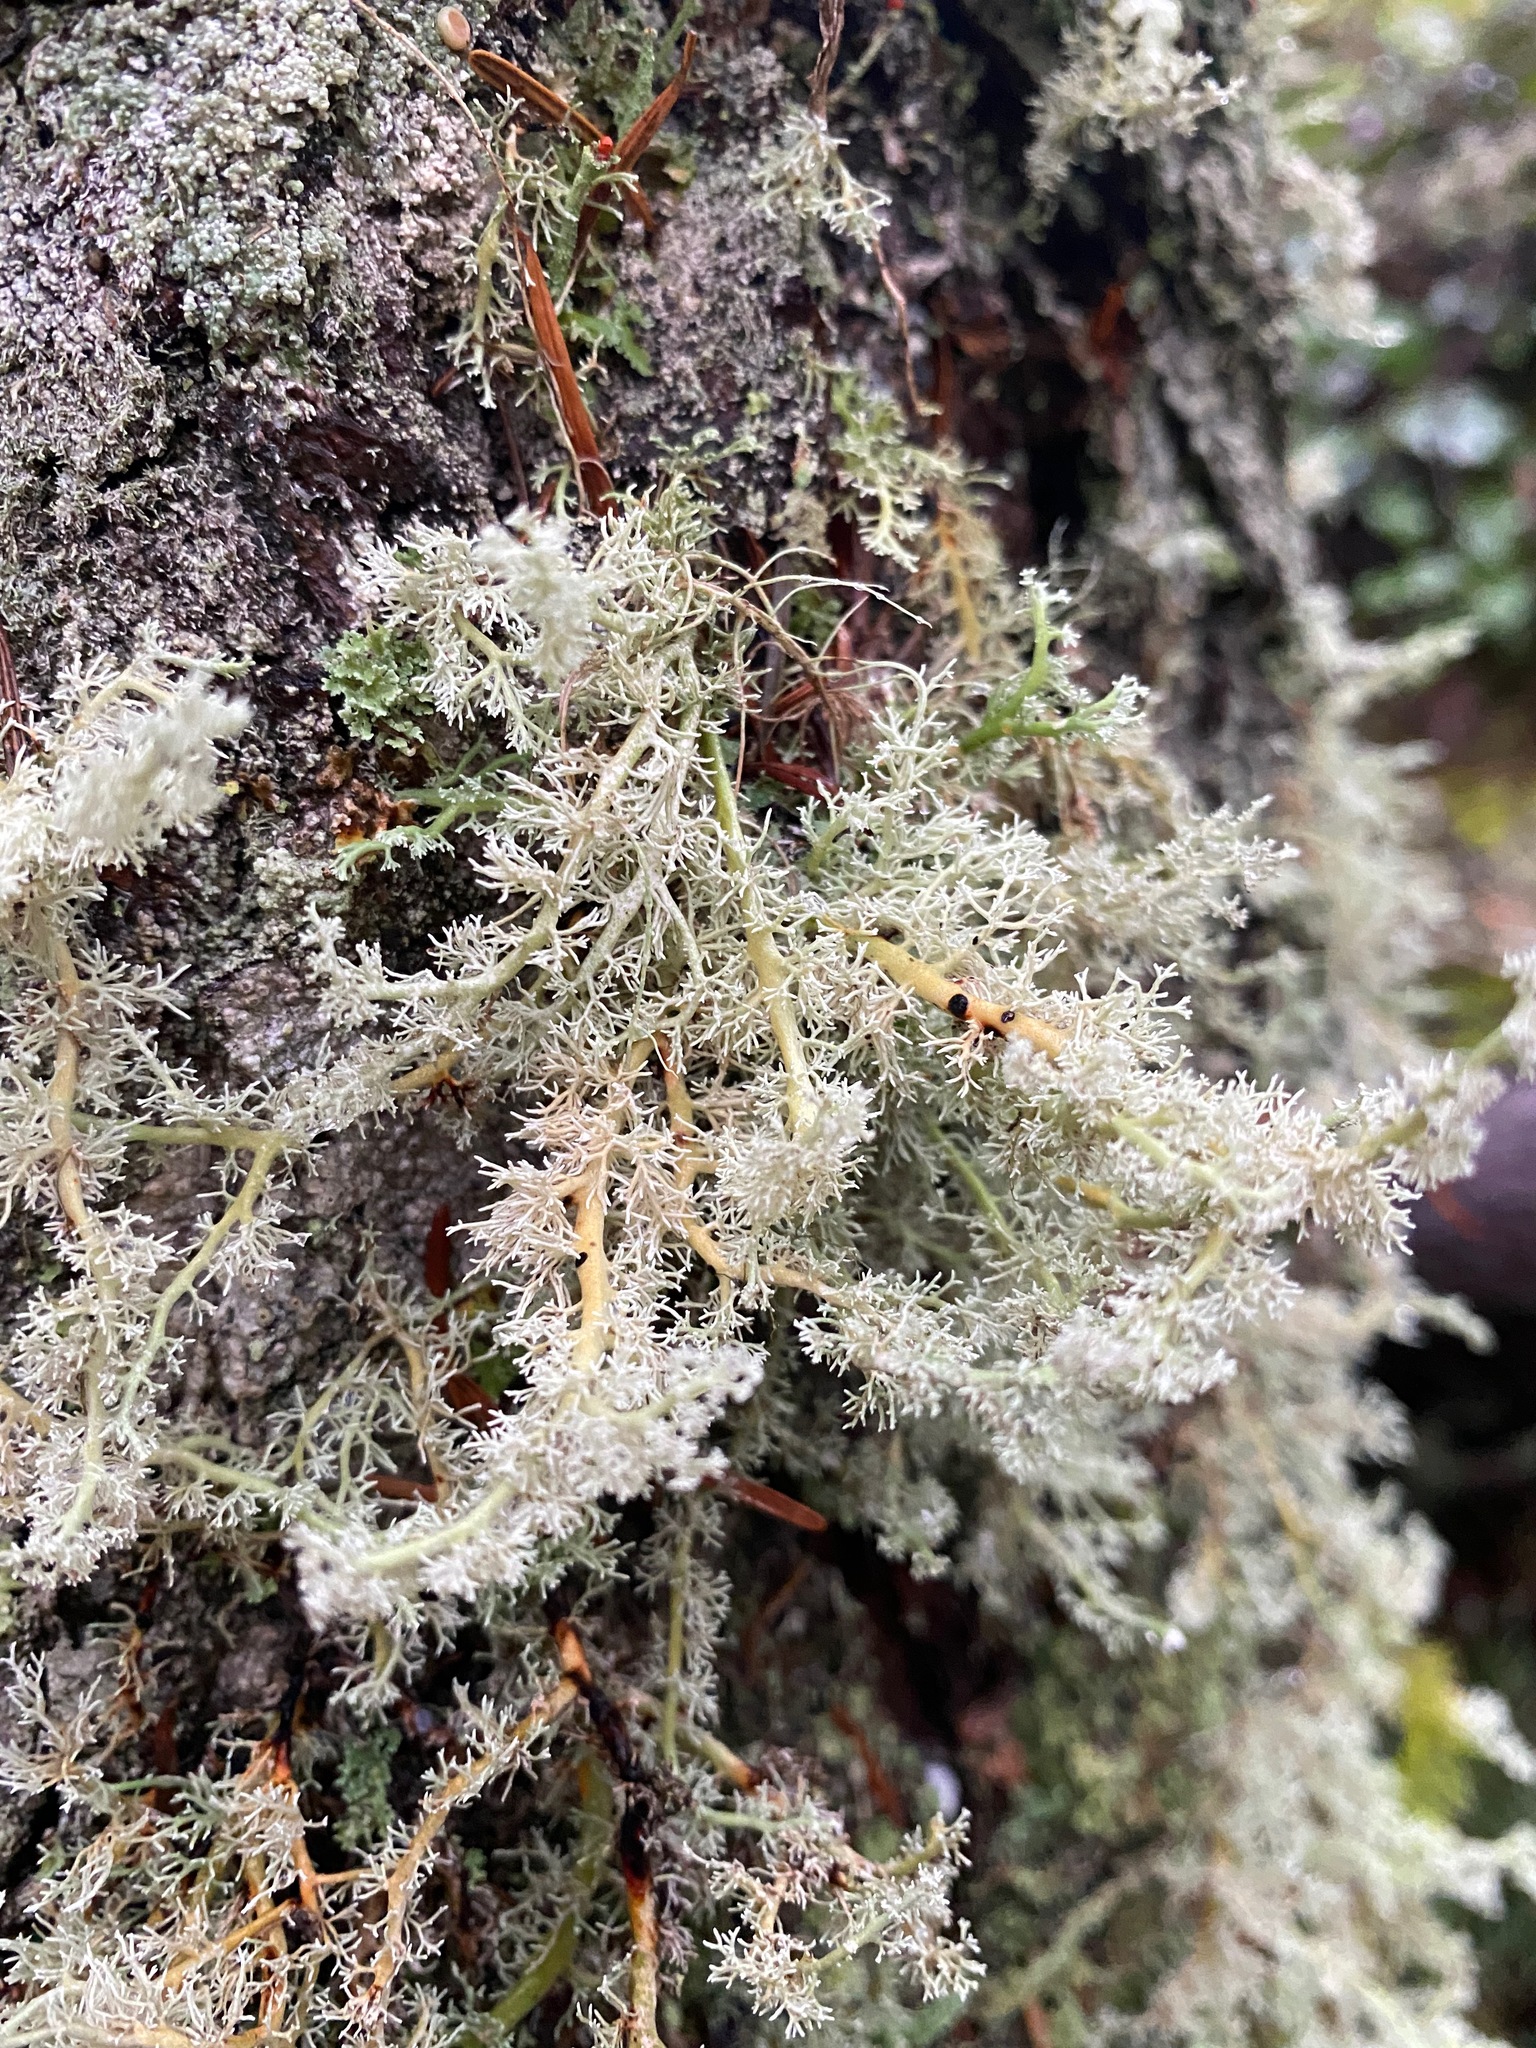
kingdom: Fungi
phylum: Ascomycota
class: Lecanoromycetes
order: Lecanorales
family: Sphaerophoraceae
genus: Sphaerophorus
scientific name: Sphaerophorus globosus
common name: Globe ball lichen
